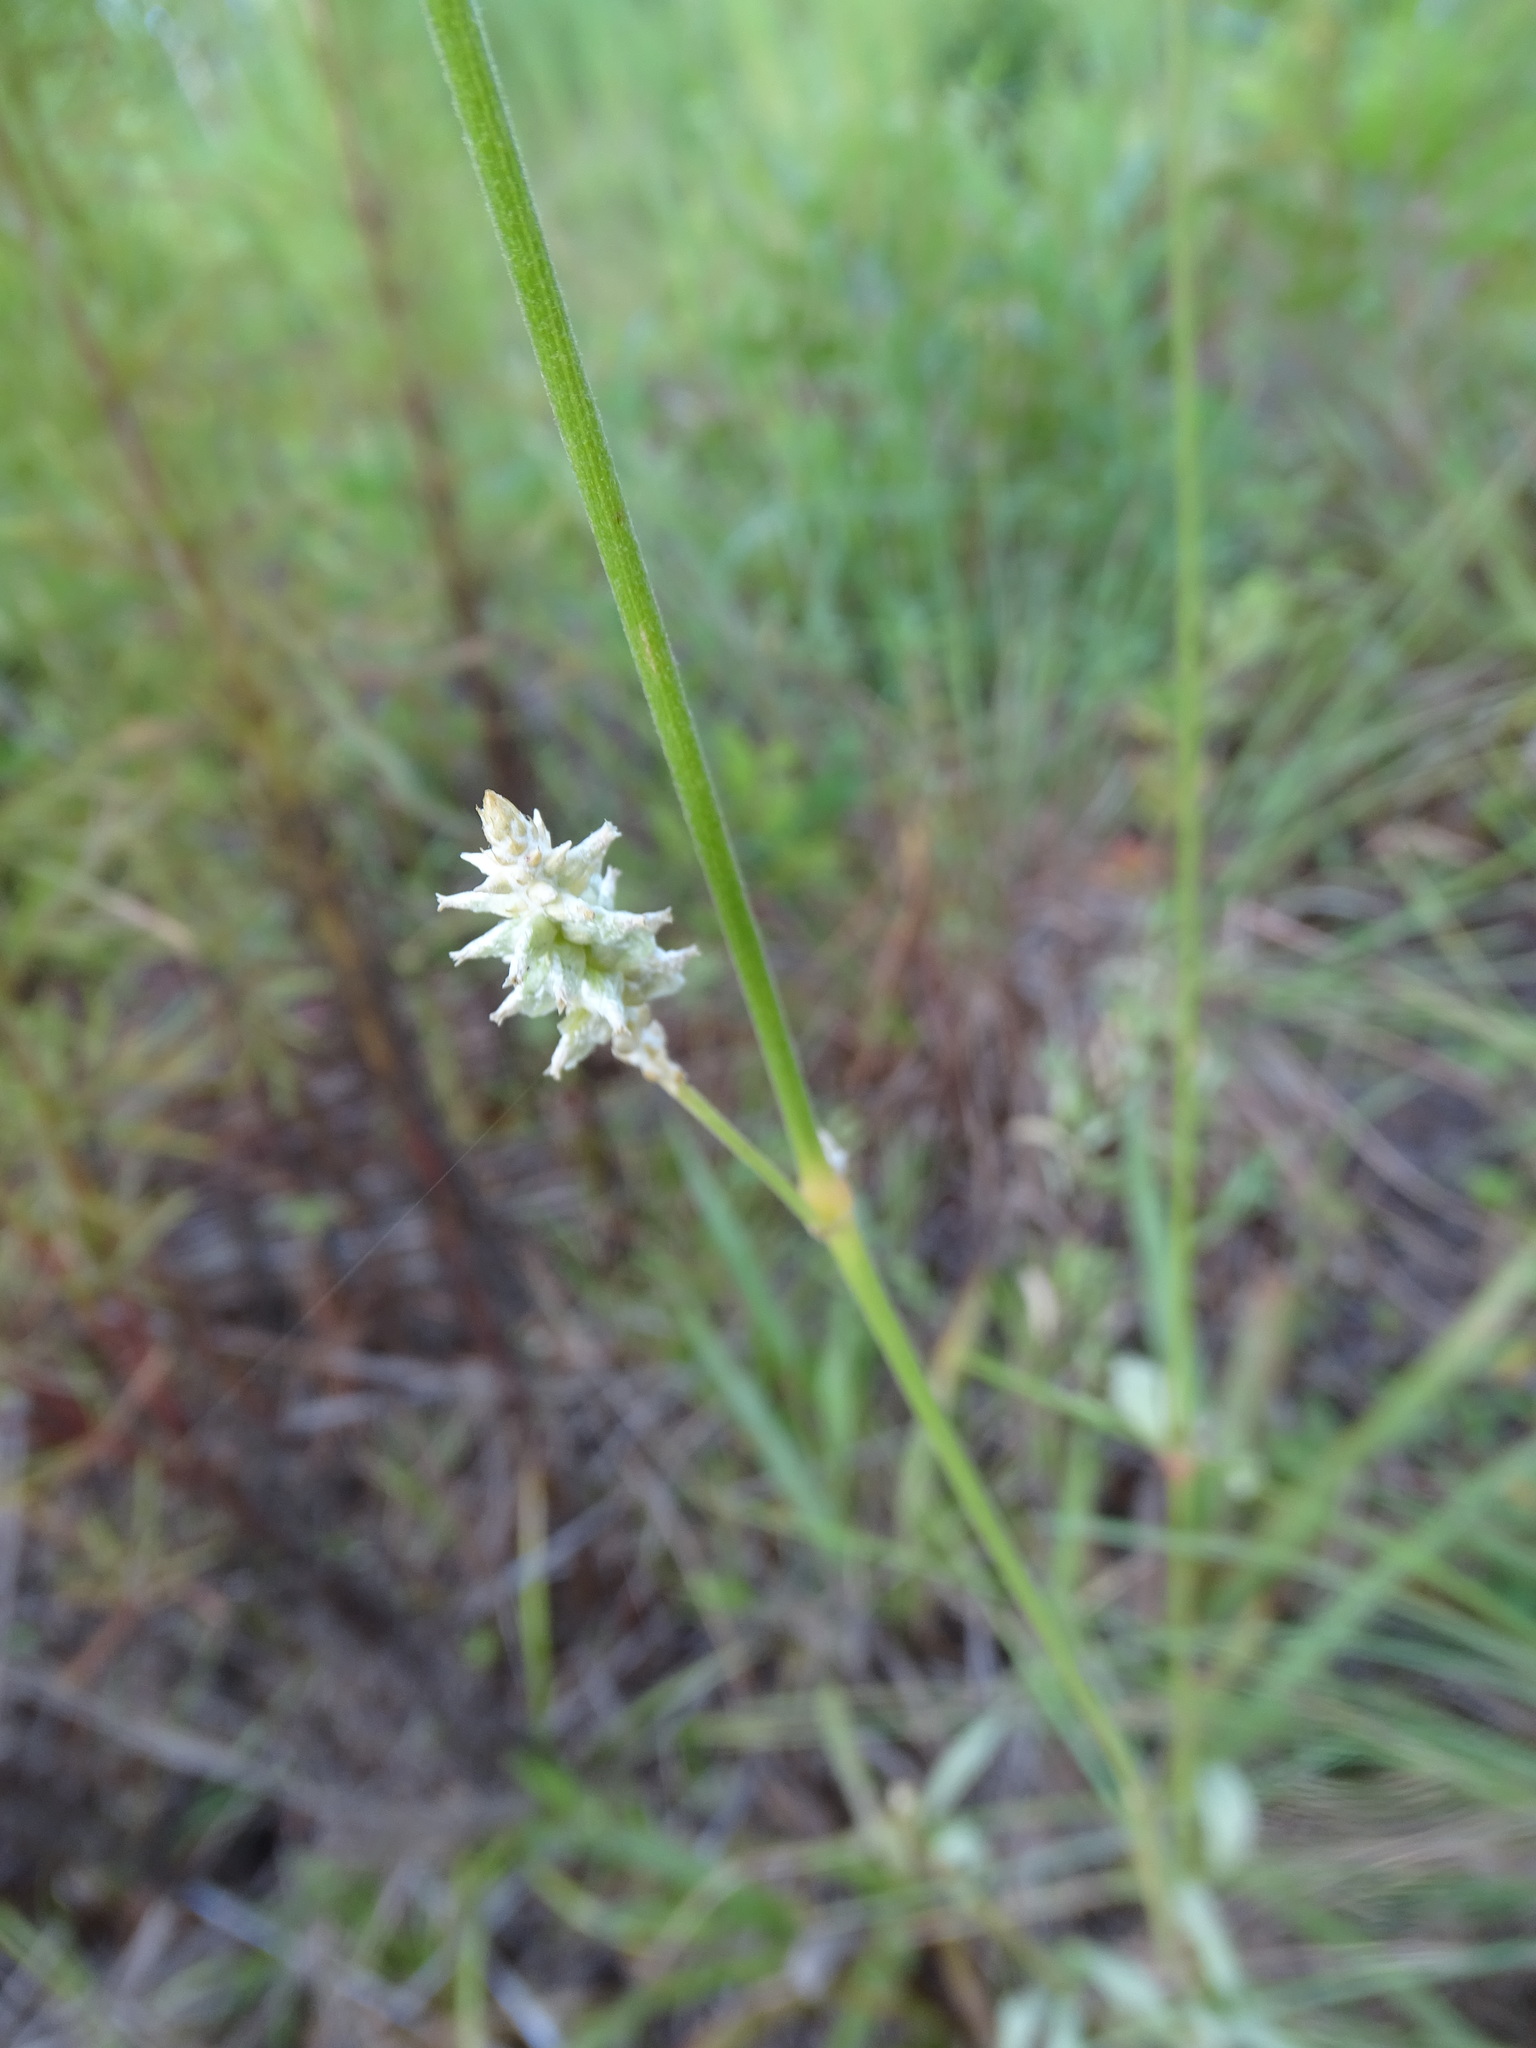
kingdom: Plantae
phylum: Tracheophyta
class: Magnoliopsida
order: Caryophyllales
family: Amaranthaceae
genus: Froelichia
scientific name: Froelichia floridana
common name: Florida snake-cotton
